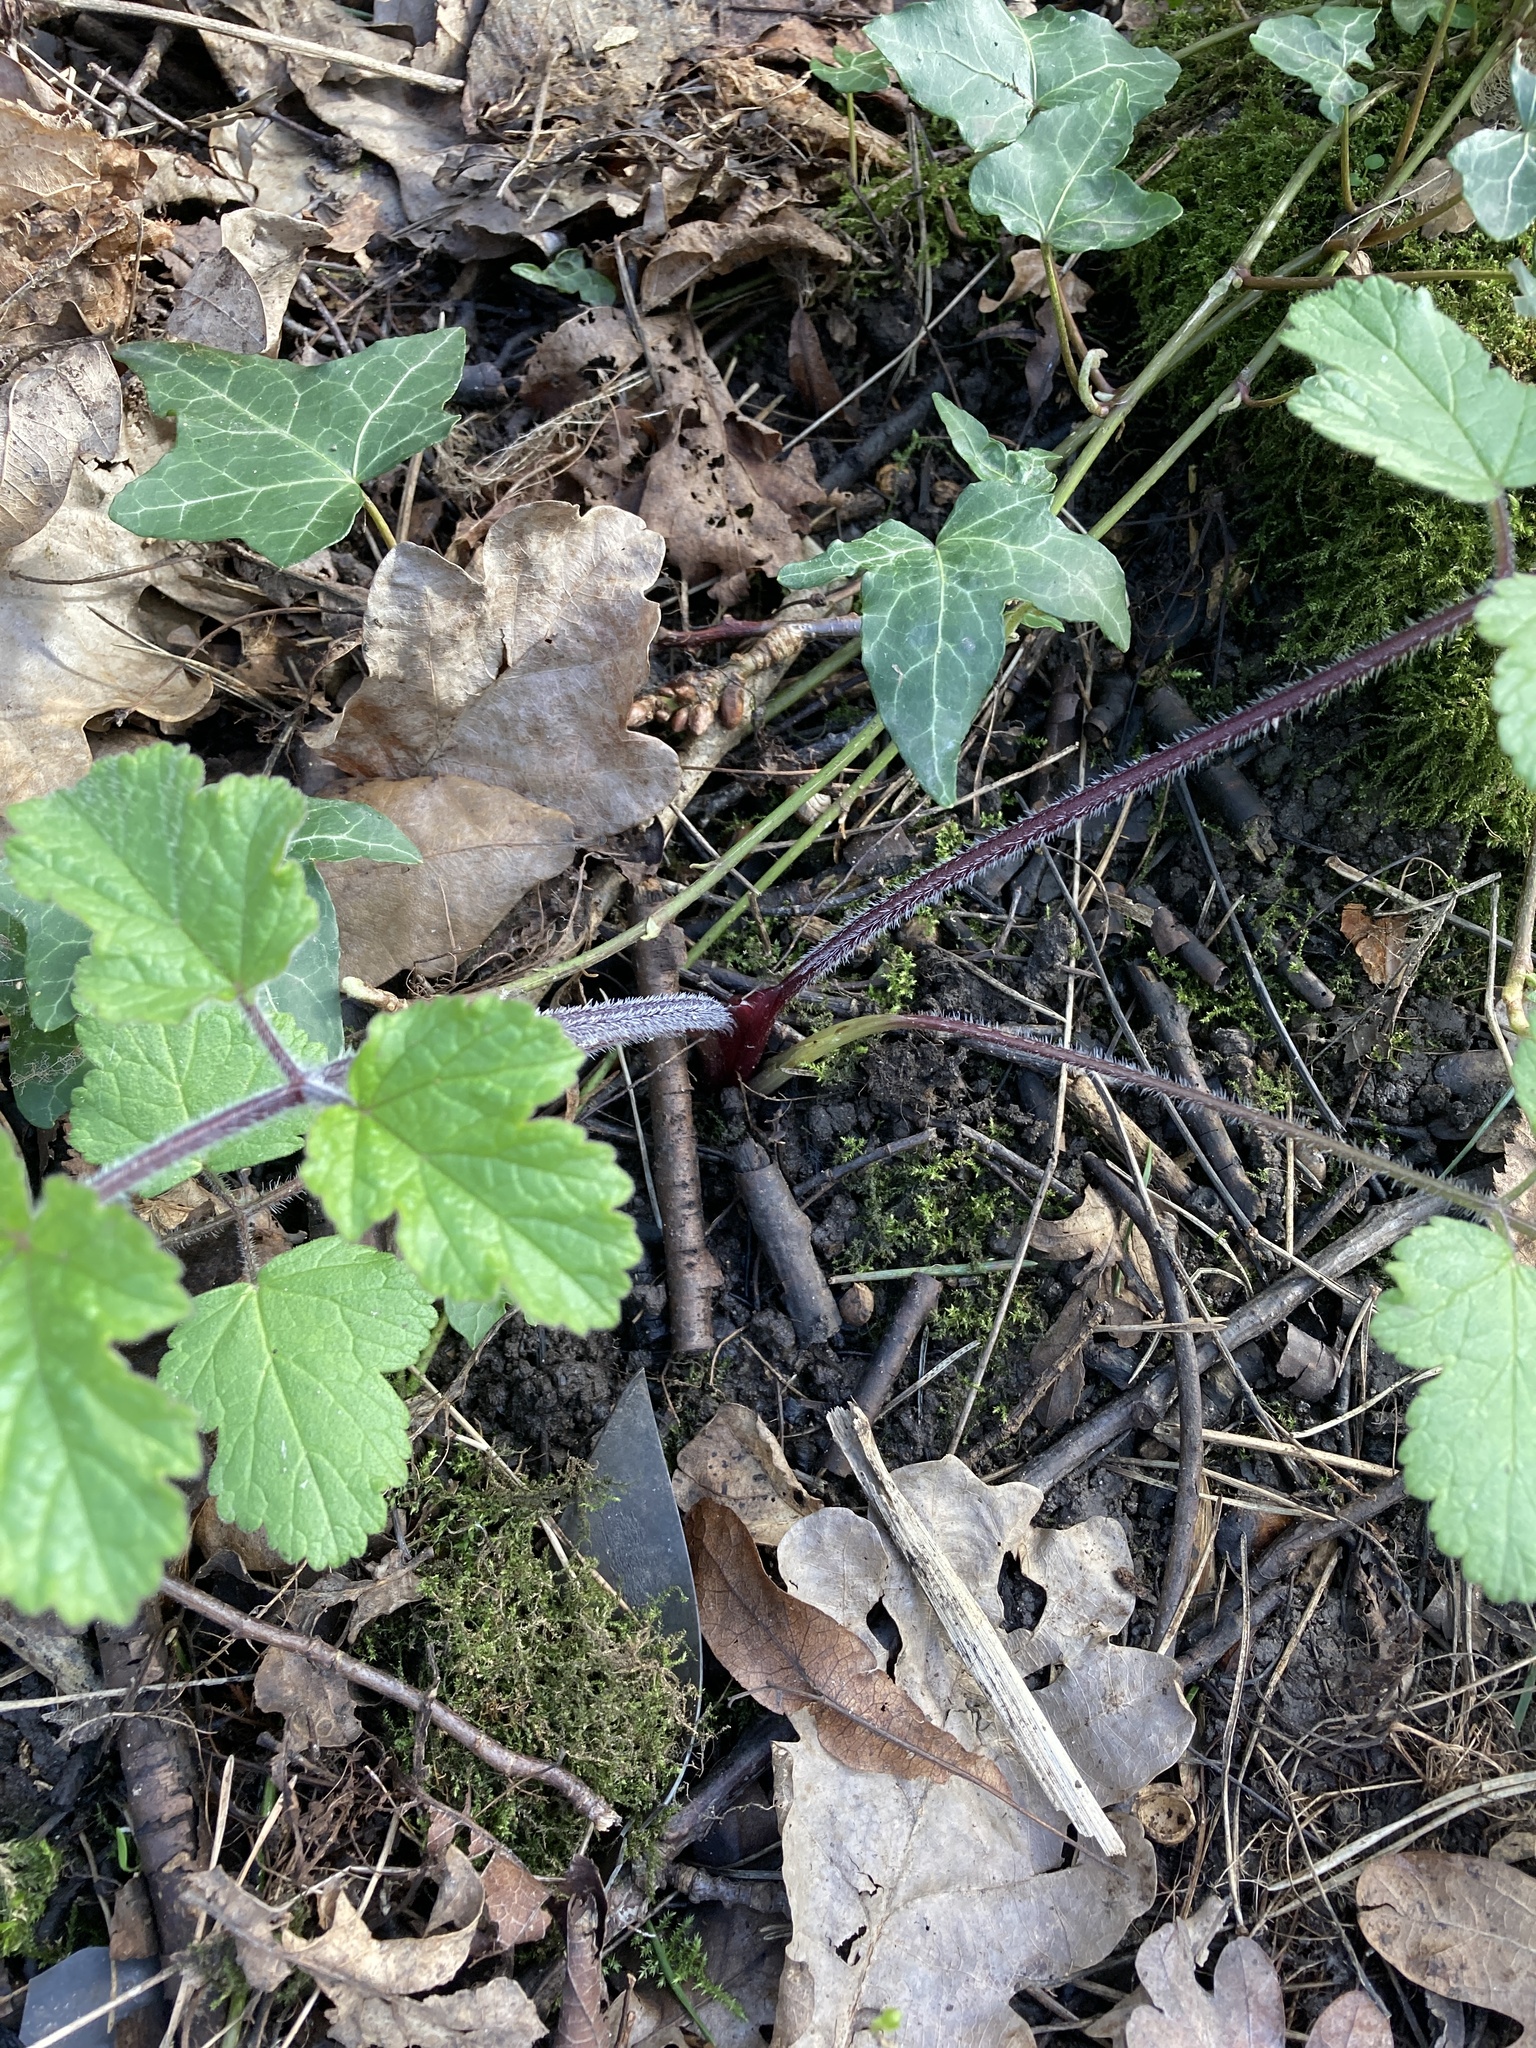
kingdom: Plantae
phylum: Tracheophyta
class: Magnoliopsida
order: Apiales
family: Apiaceae
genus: Heracleum
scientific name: Heracleum sphondylium
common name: Hogweed
